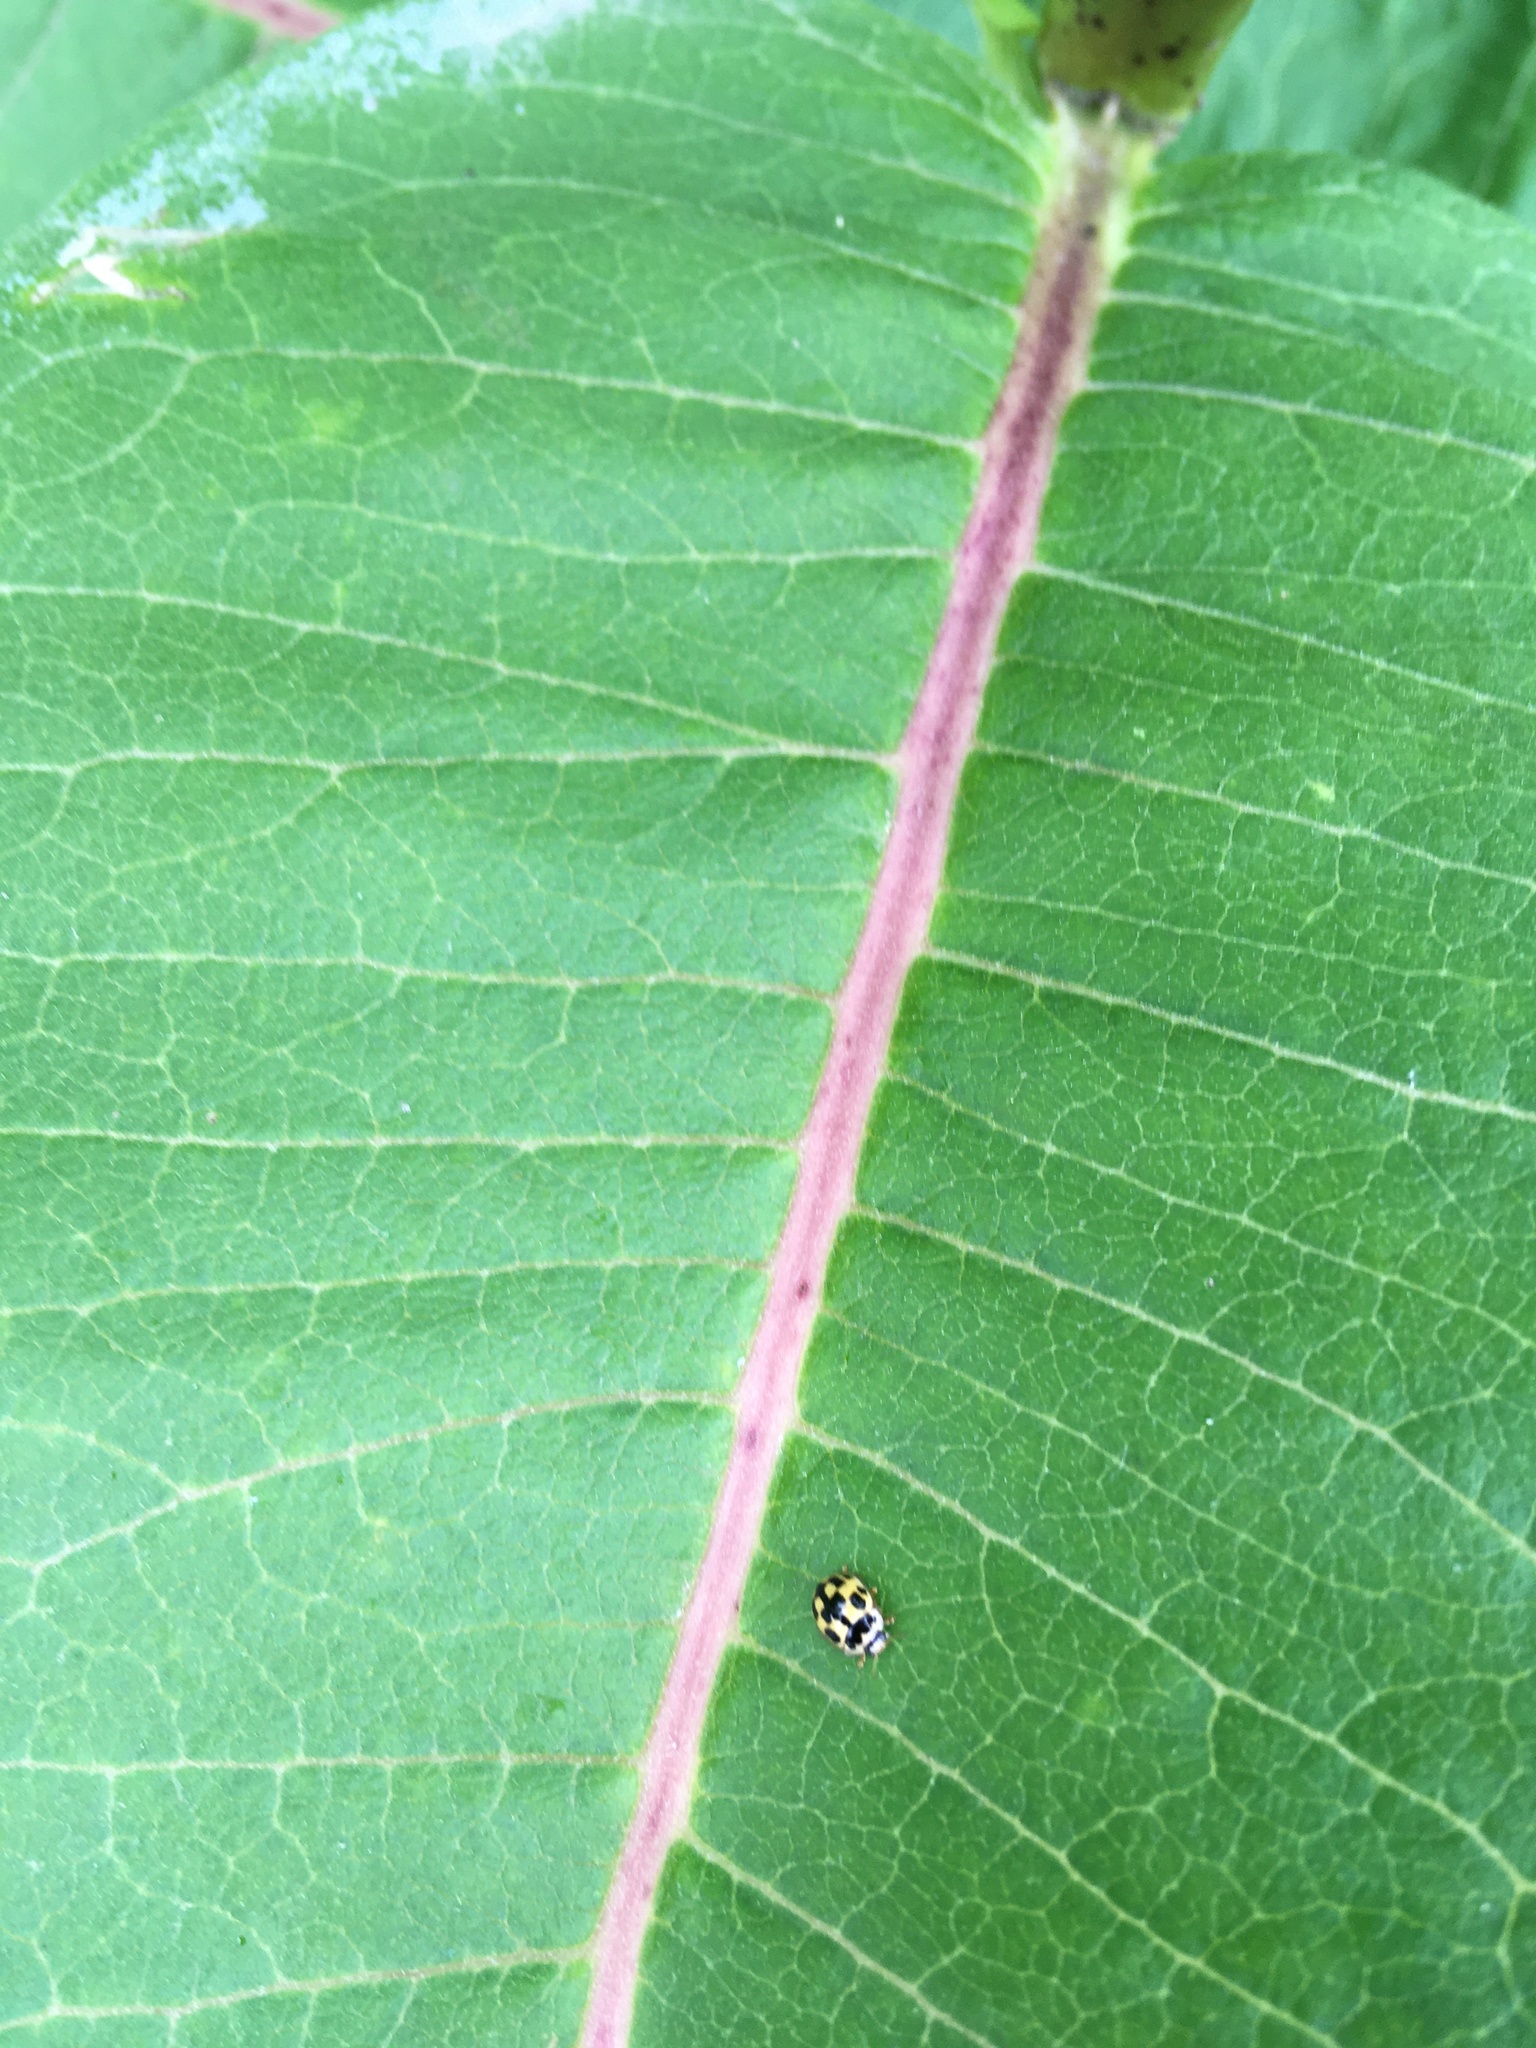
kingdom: Animalia
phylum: Arthropoda
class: Insecta
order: Coleoptera
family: Coccinellidae
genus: Propylaea
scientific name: Propylaea quatuordecimpunctata
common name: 14-spotted ladybird beetle
